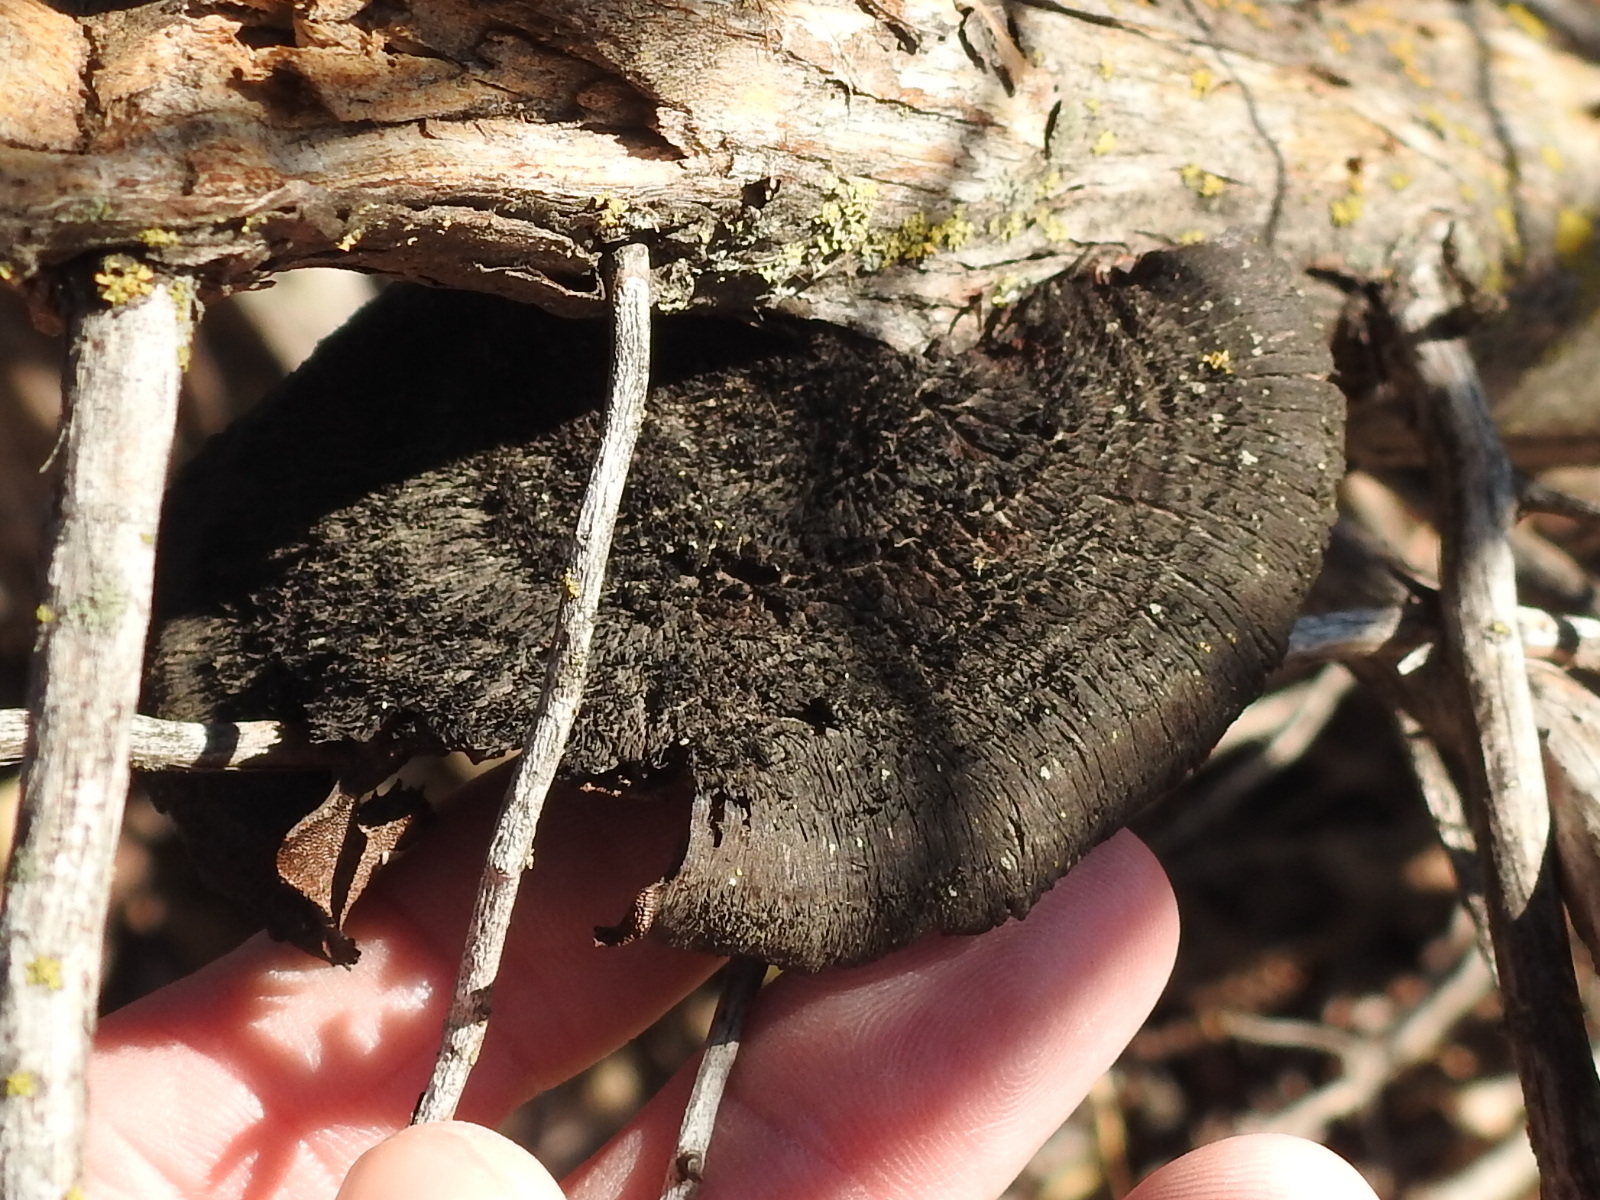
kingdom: Fungi
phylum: Basidiomycota
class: Agaricomycetes
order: Polyporales
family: Cerrenaceae
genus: Cerrena
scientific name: Cerrena hydnoides
